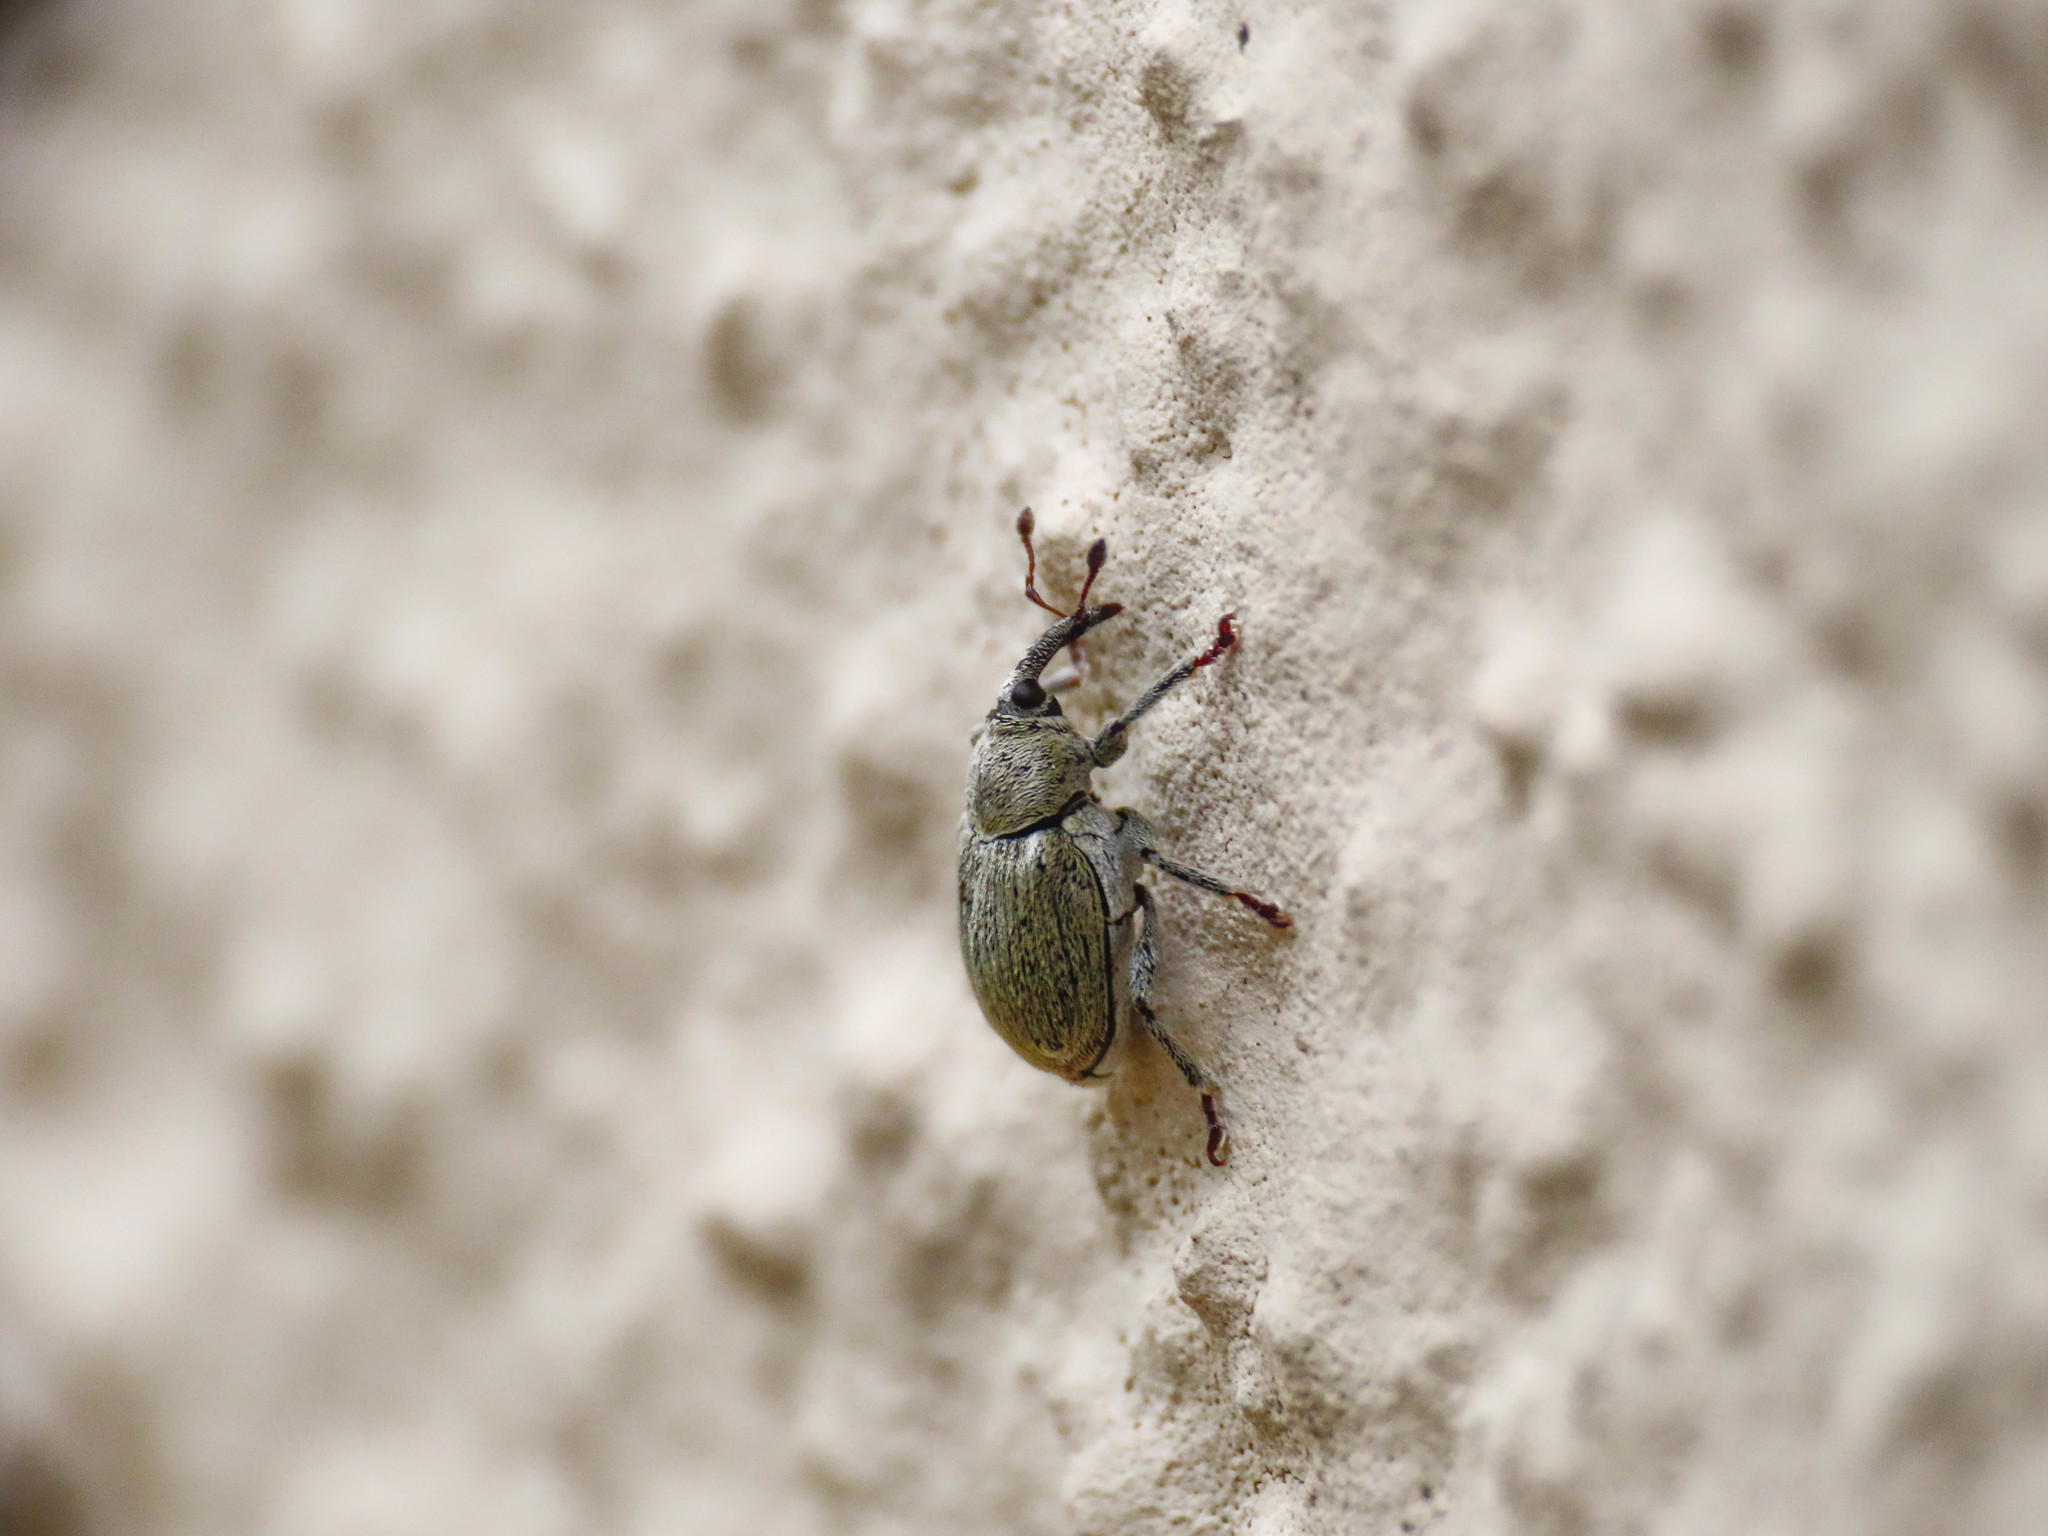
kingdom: Animalia
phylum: Arthropoda
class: Insecta
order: Coleoptera
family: Curculionidae
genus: Sibinia
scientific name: Sibinia viscariae
